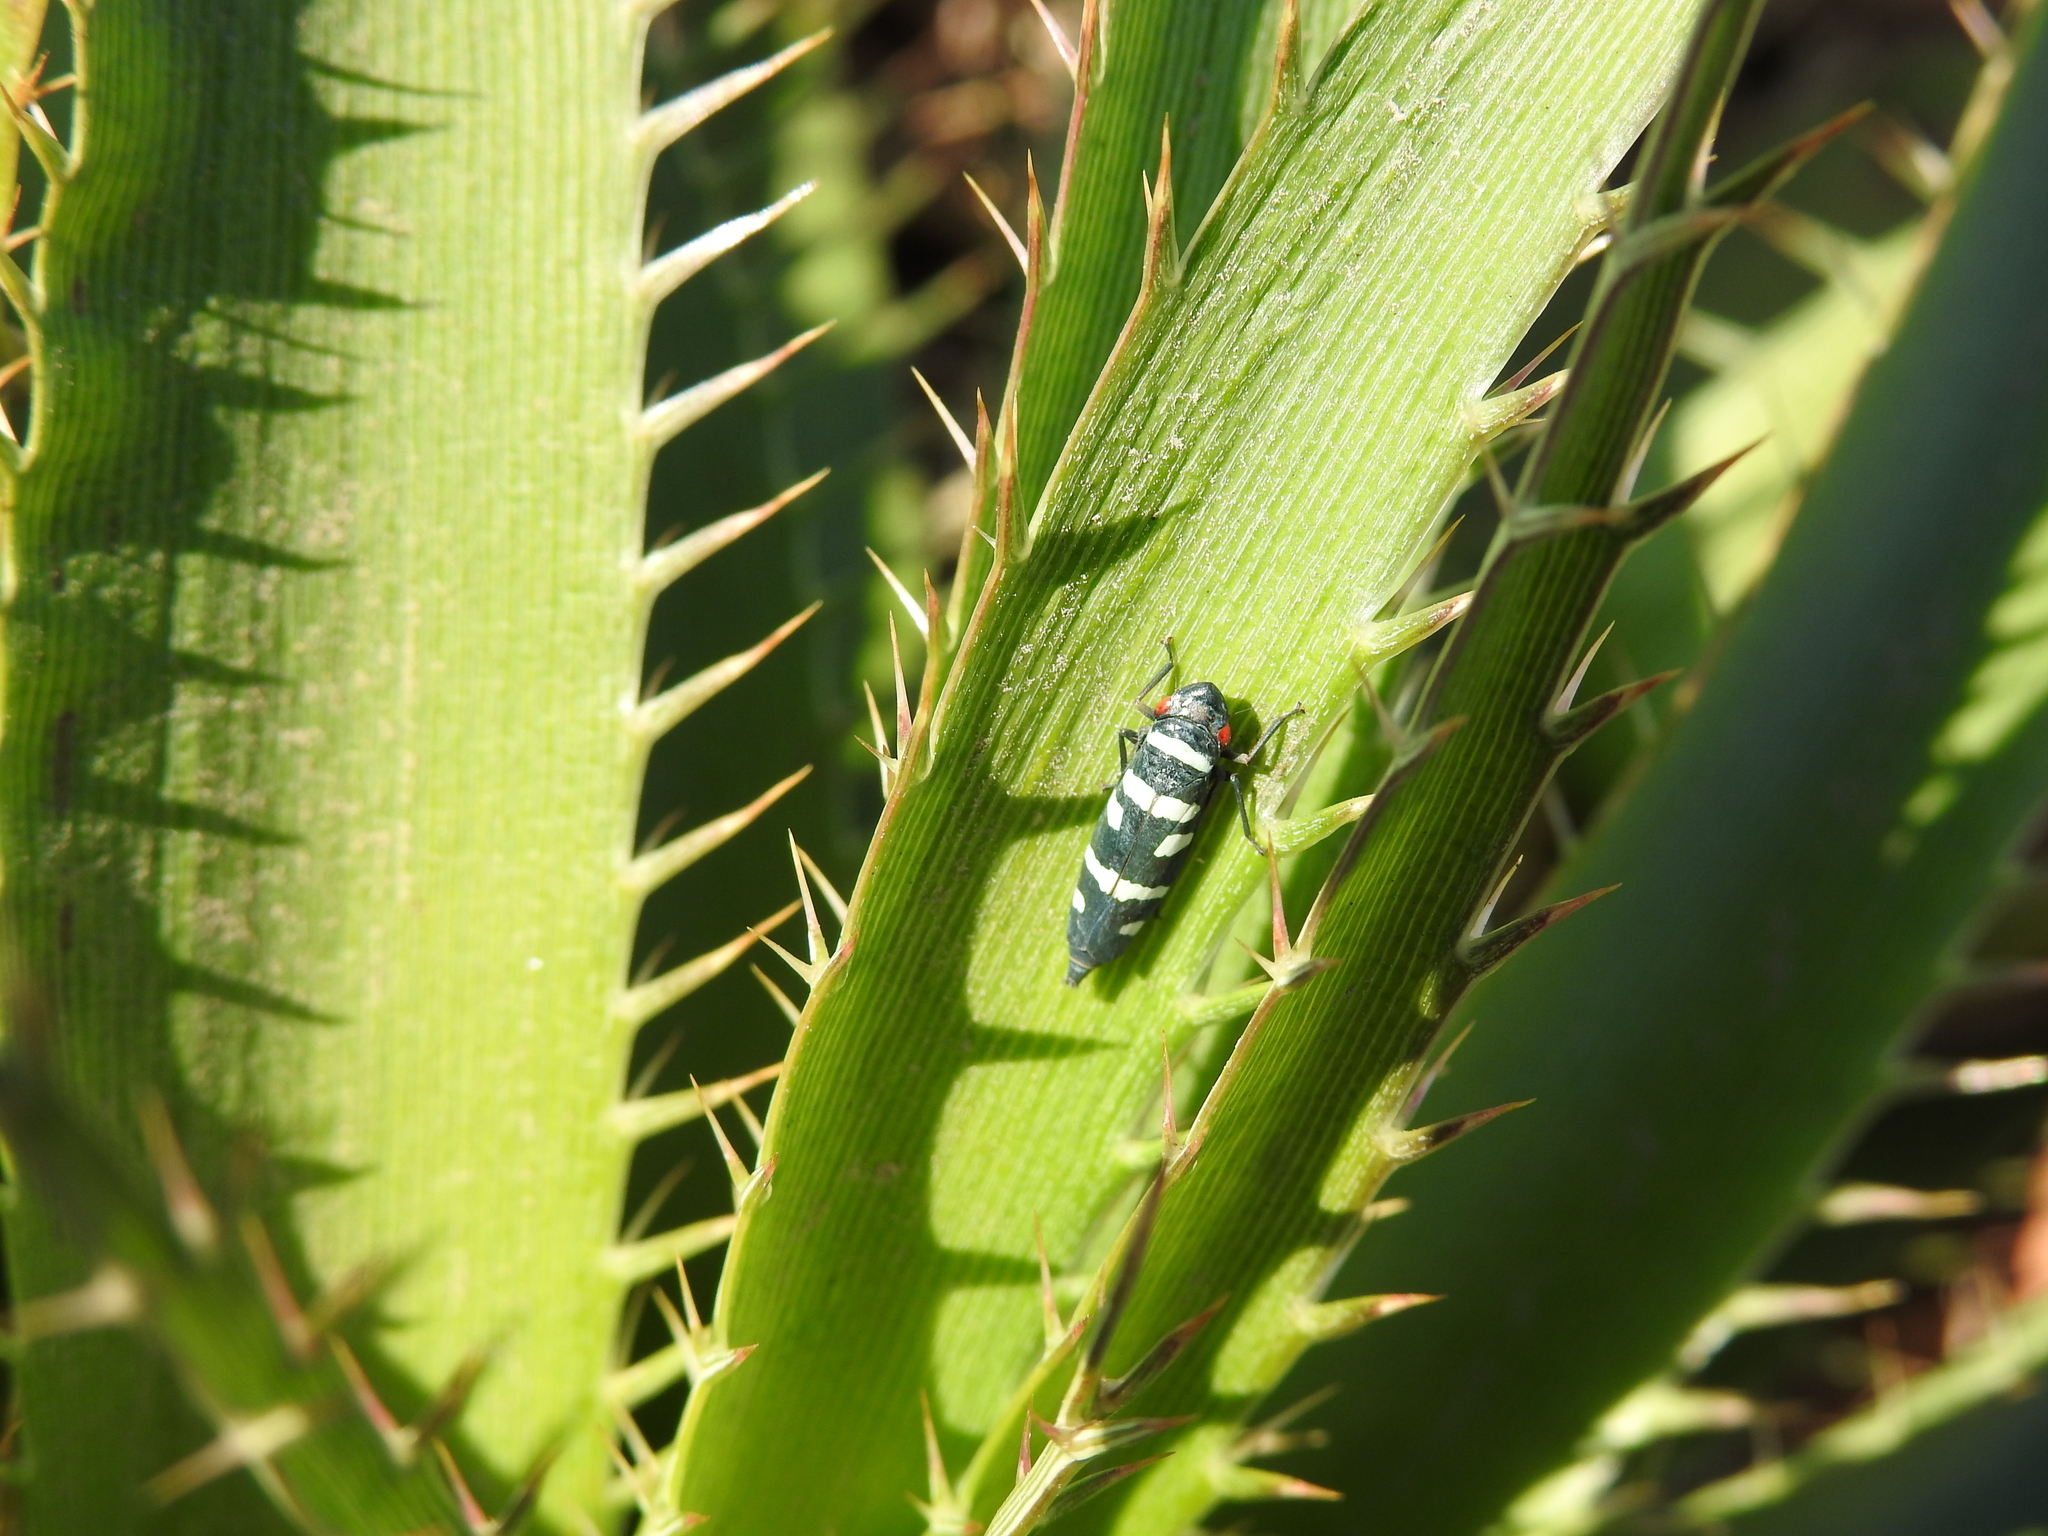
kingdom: Animalia
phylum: Arthropoda
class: Insecta
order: Hemiptera
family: Cicadellidae
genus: Balacha
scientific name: Balacha melanocephala
